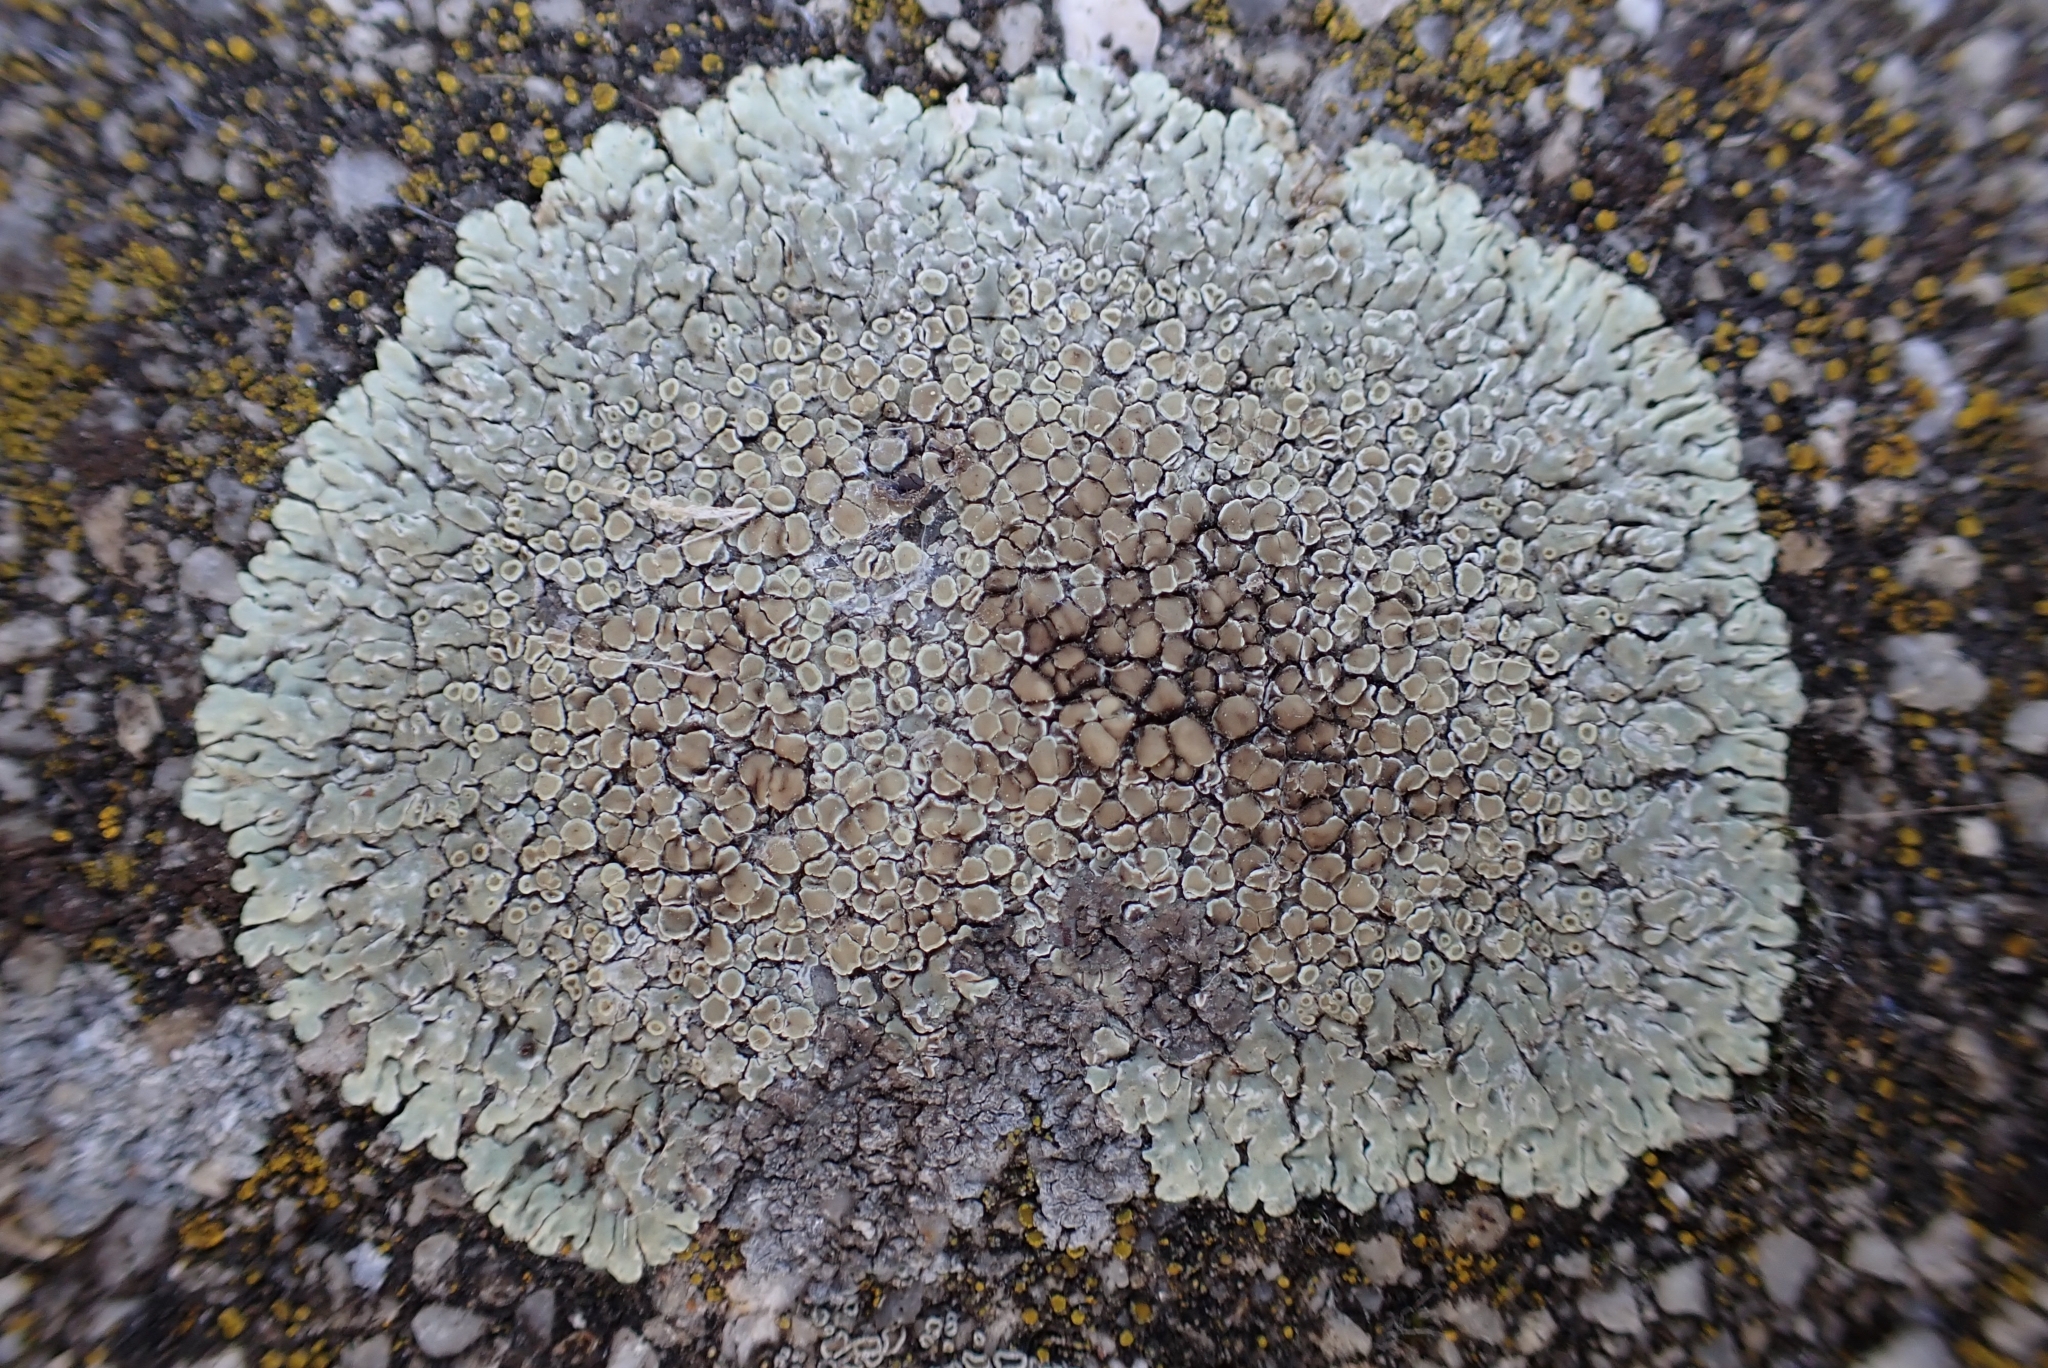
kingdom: Fungi
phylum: Ascomycota
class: Lecanoromycetes
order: Lecanorales
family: Lecanoraceae
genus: Protoparmeliopsis
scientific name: Protoparmeliopsis muralis
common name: Stonewall rim lichen
